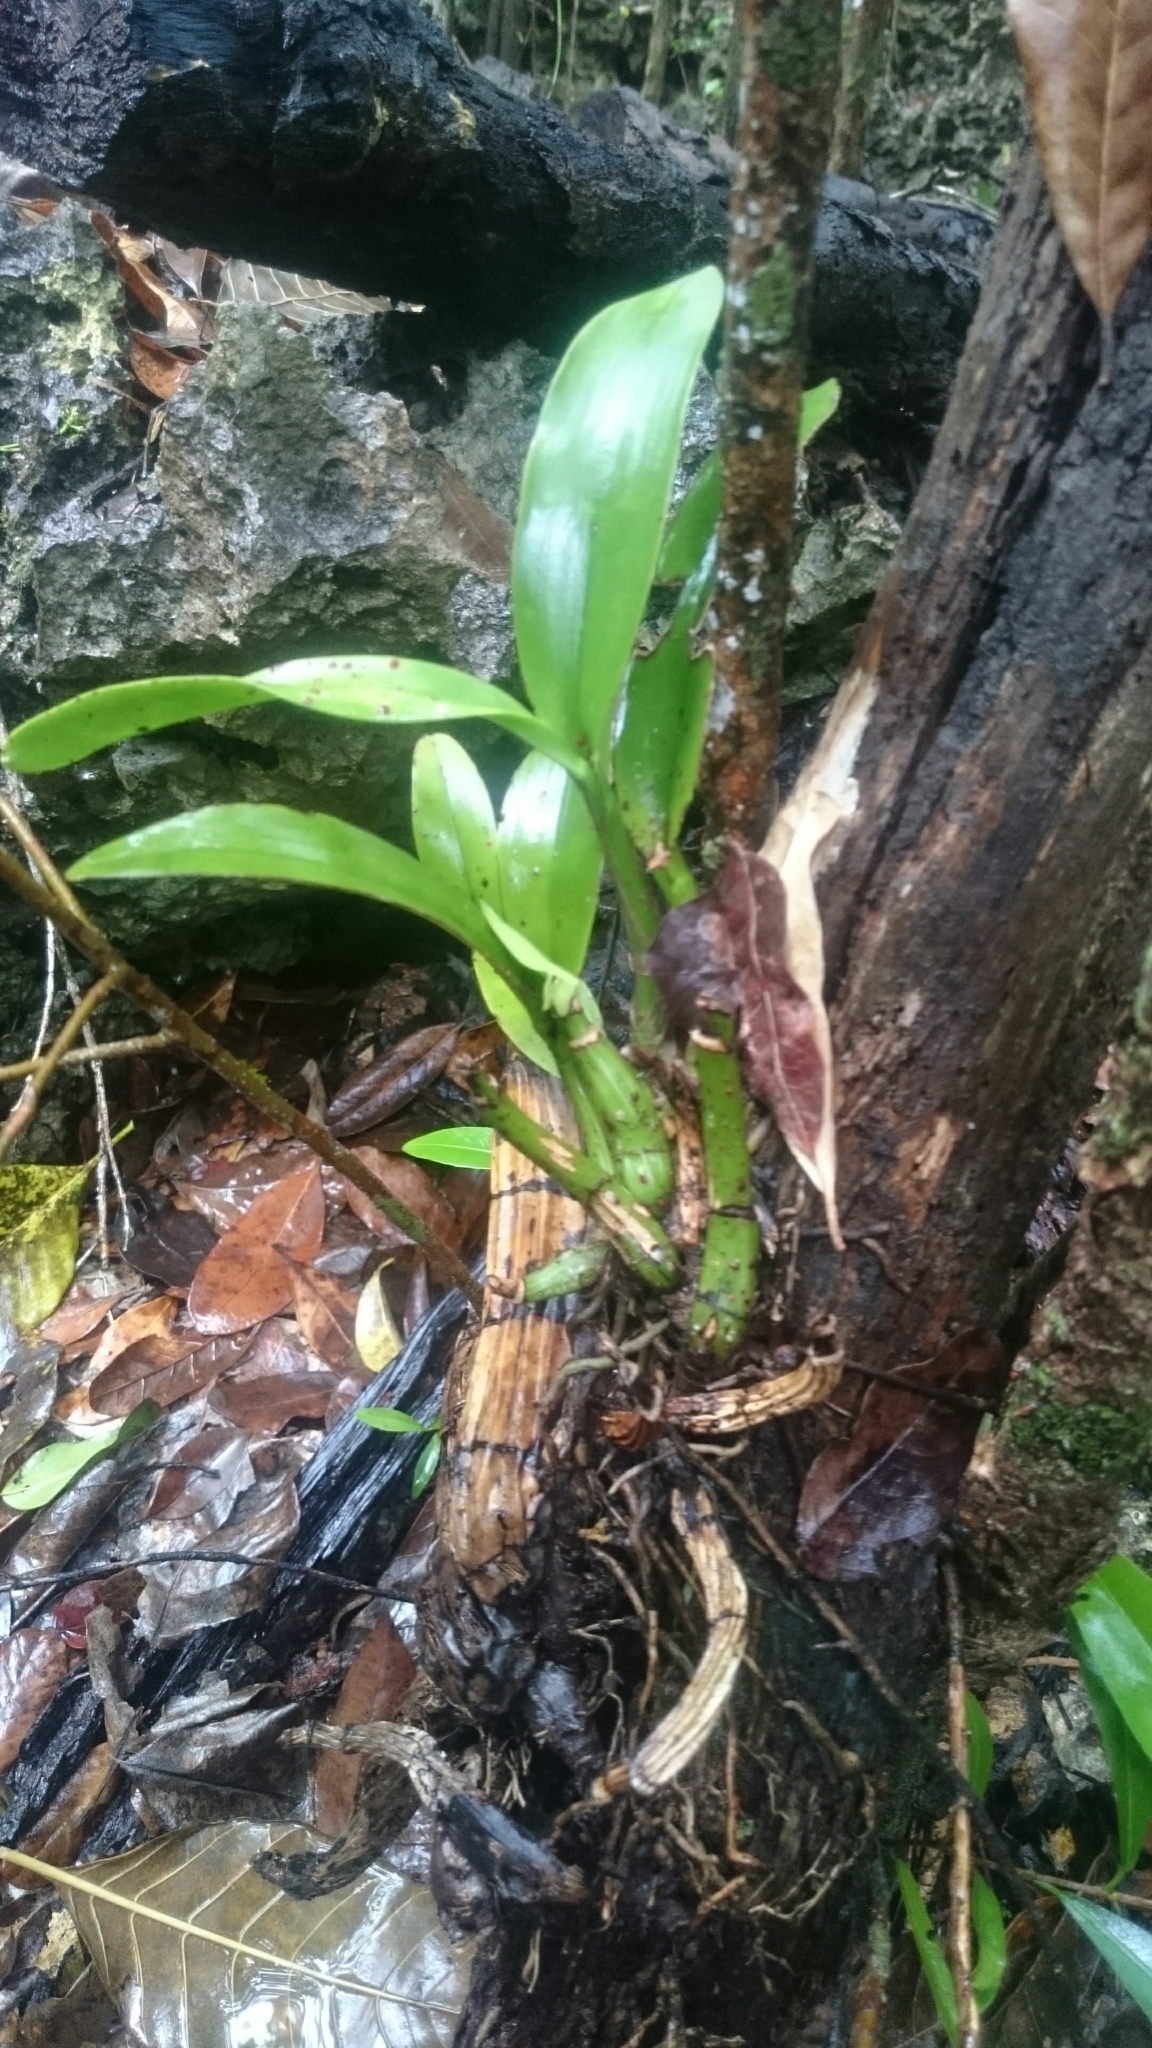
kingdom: Plantae
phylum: Tracheophyta
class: Liliopsida
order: Asparagales
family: Orchidaceae
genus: Myrmecophila
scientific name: Myrmecophila thomsoniana
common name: Banana orchid
